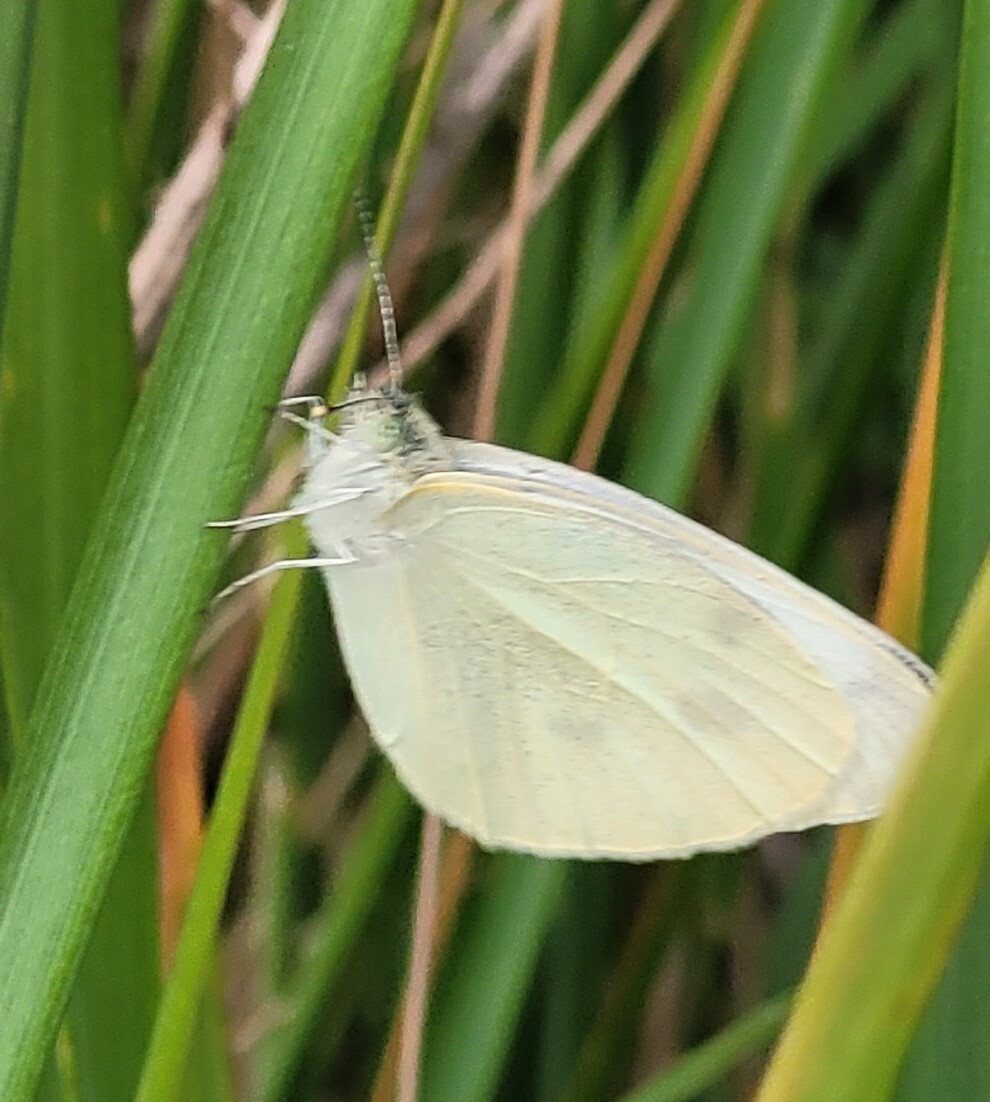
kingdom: Animalia
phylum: Arthropoda
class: Insecta
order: Lepidoptera
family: Pieridae
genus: Pieris
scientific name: Pieris rapae
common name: Small white
